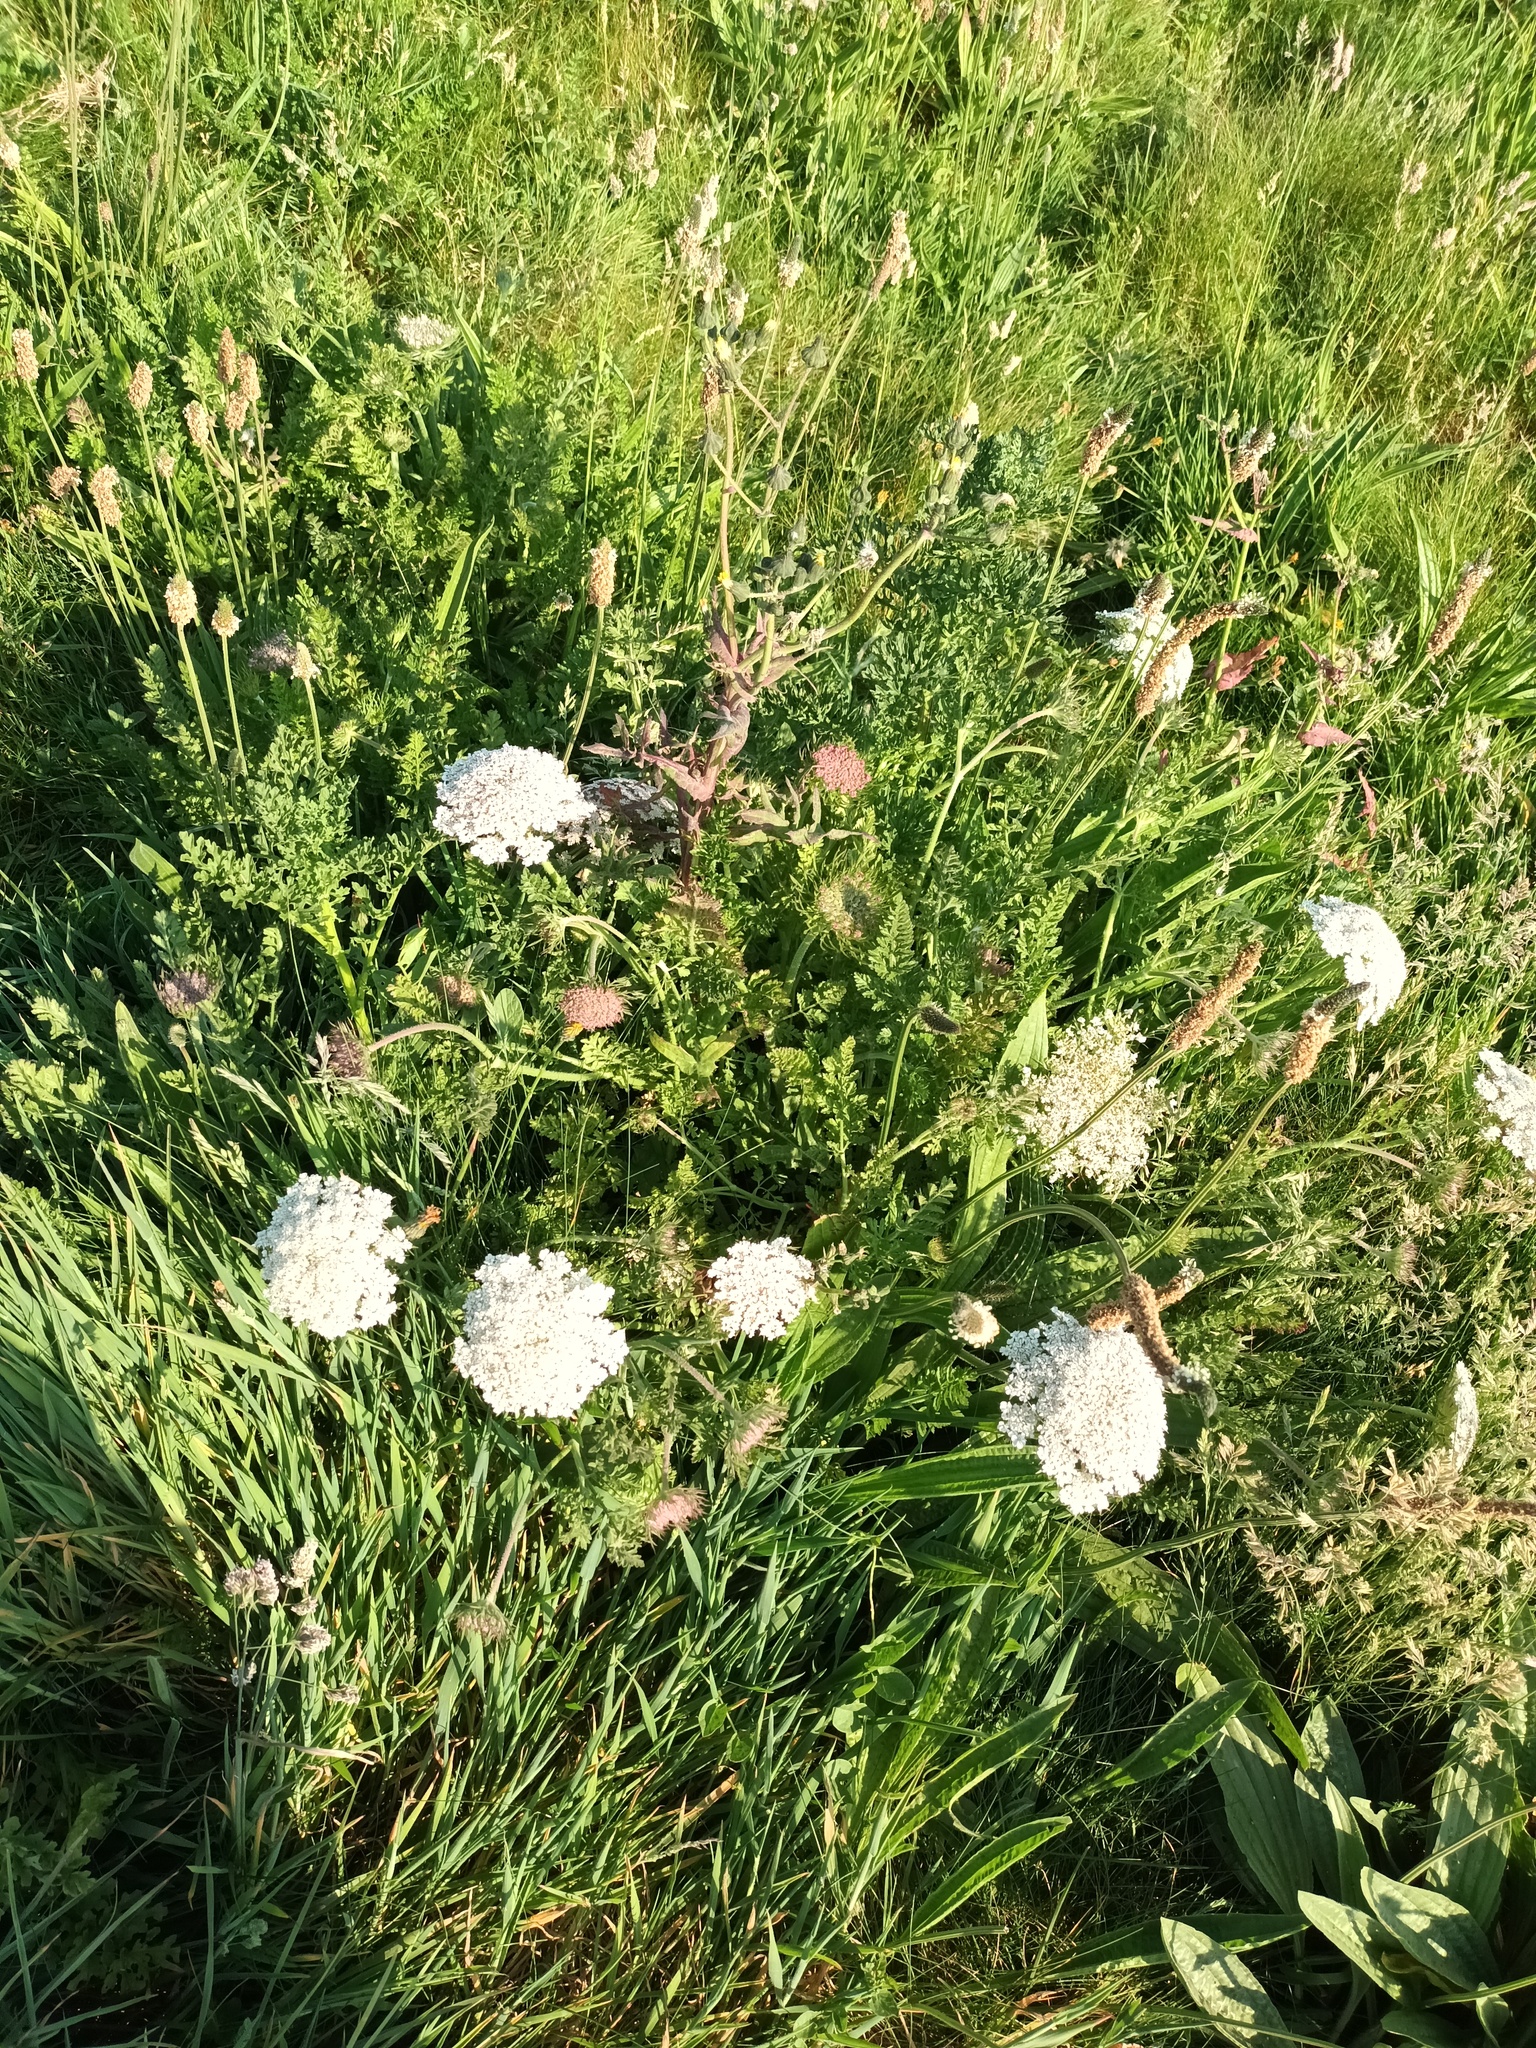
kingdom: Plantae
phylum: Tracheophyta
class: Magnoliopsida
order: Apiales
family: Apiaceae
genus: Daucus
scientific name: Daucus carota
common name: Wild carrot
